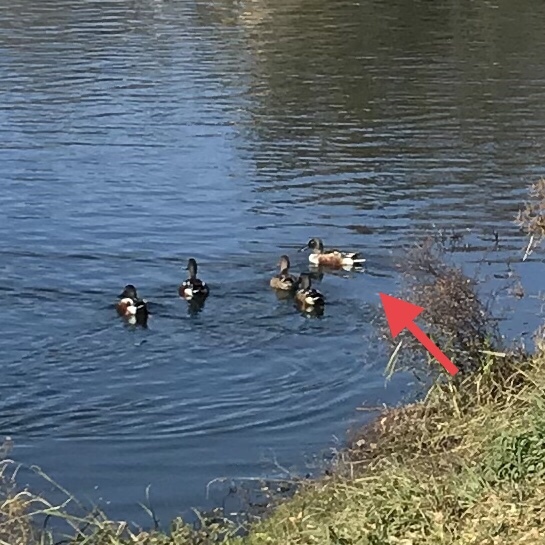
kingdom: Animalia
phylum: Chordata
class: Aves
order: Anseriformes
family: Anatidae
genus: Spatula
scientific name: Spatula clypeata
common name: Northern shoveler
